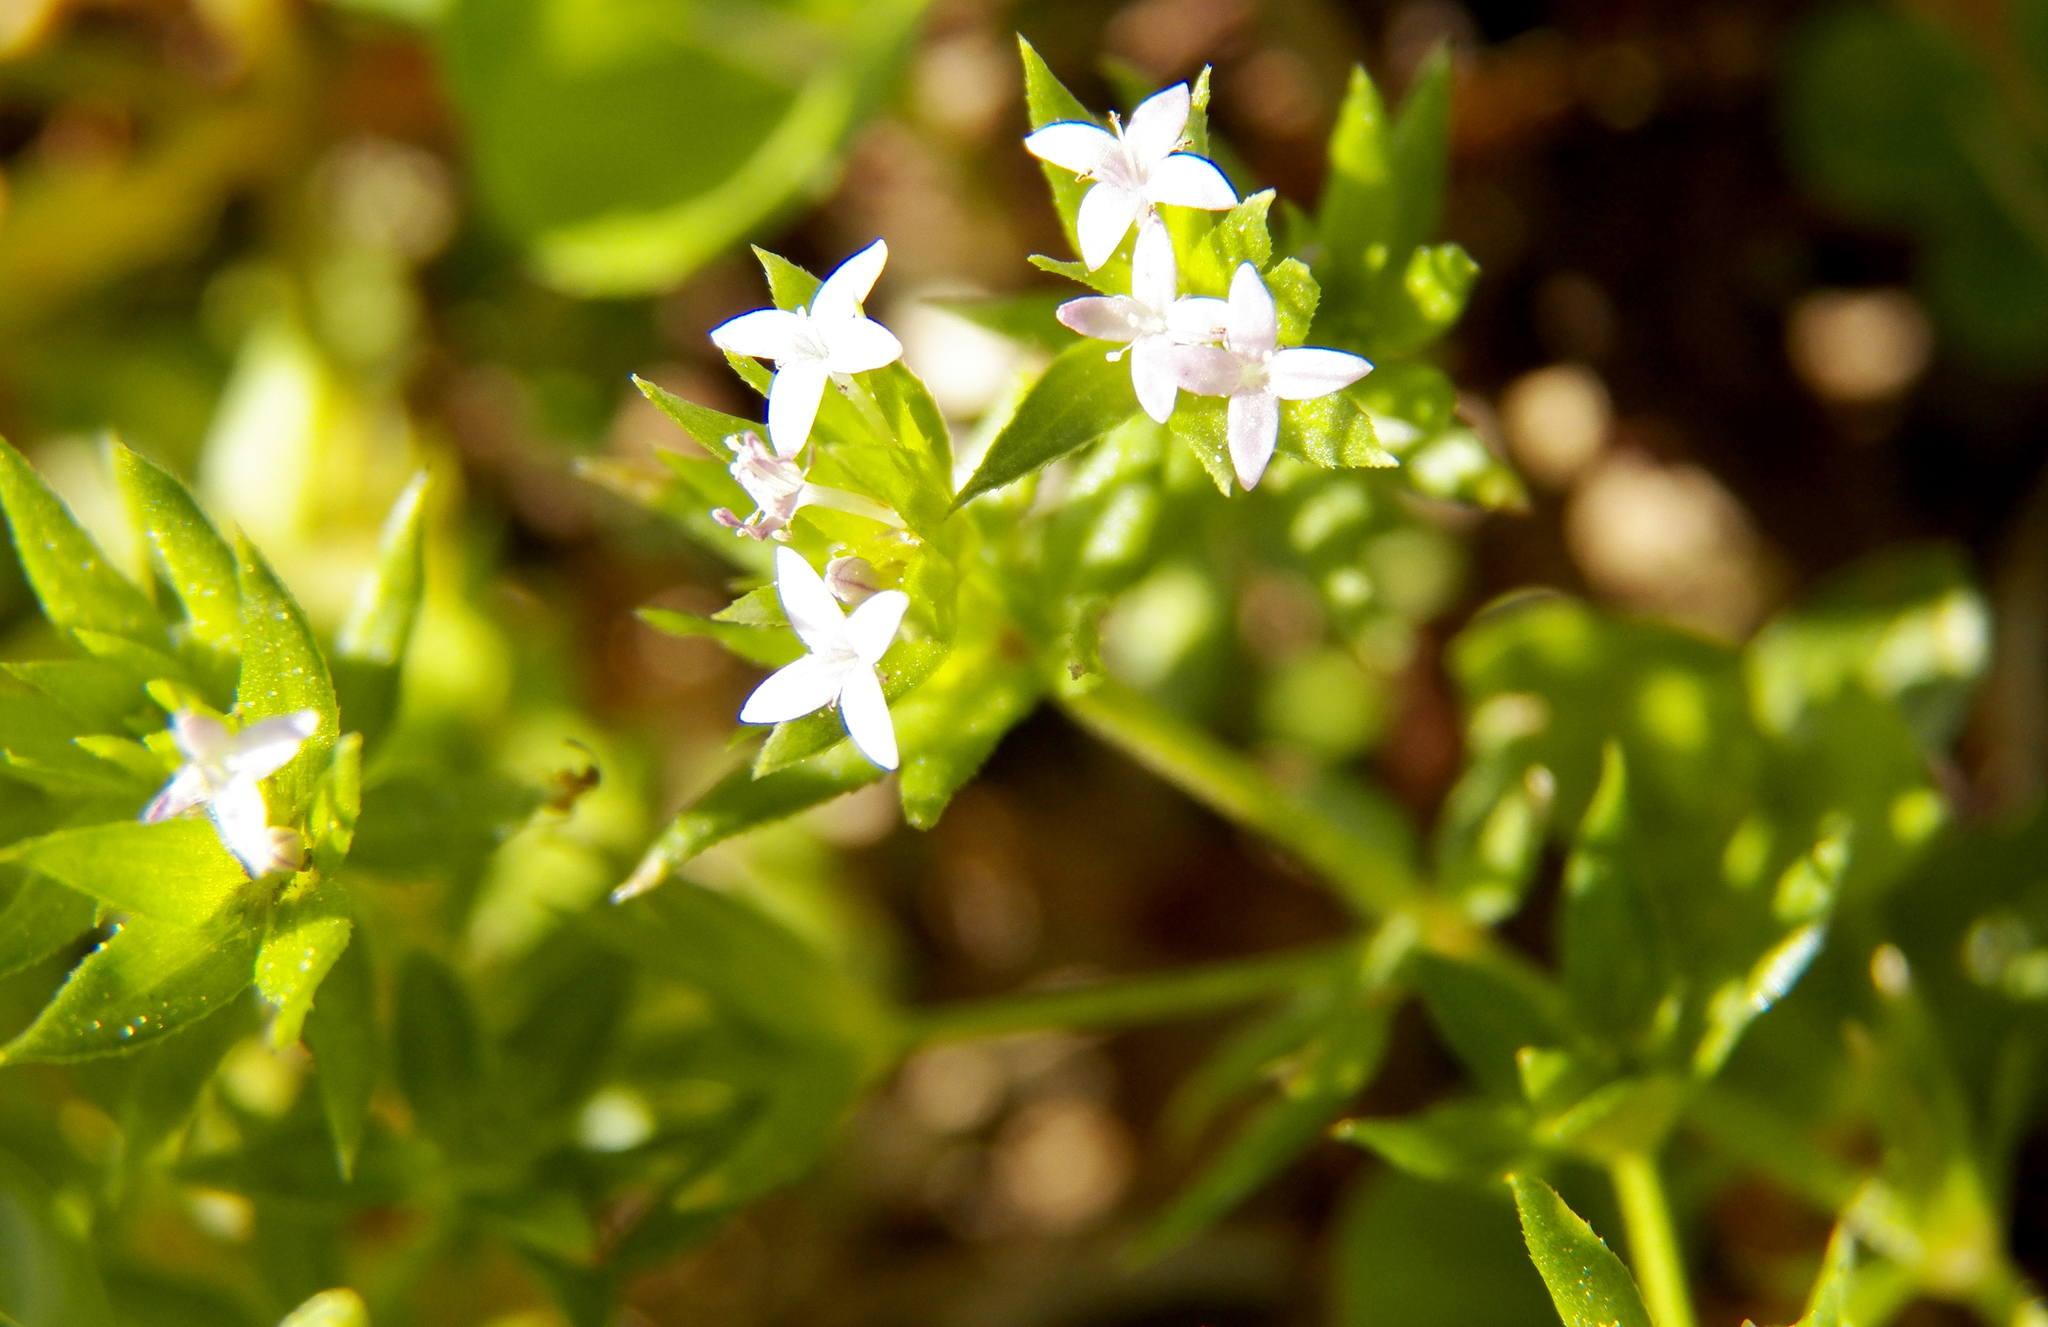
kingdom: Plantae
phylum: Tracheophyta
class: Magnoliopsida
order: Gentianales
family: Rubiaceae
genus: Sherardia
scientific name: Sherardia arvensis
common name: Field madder
